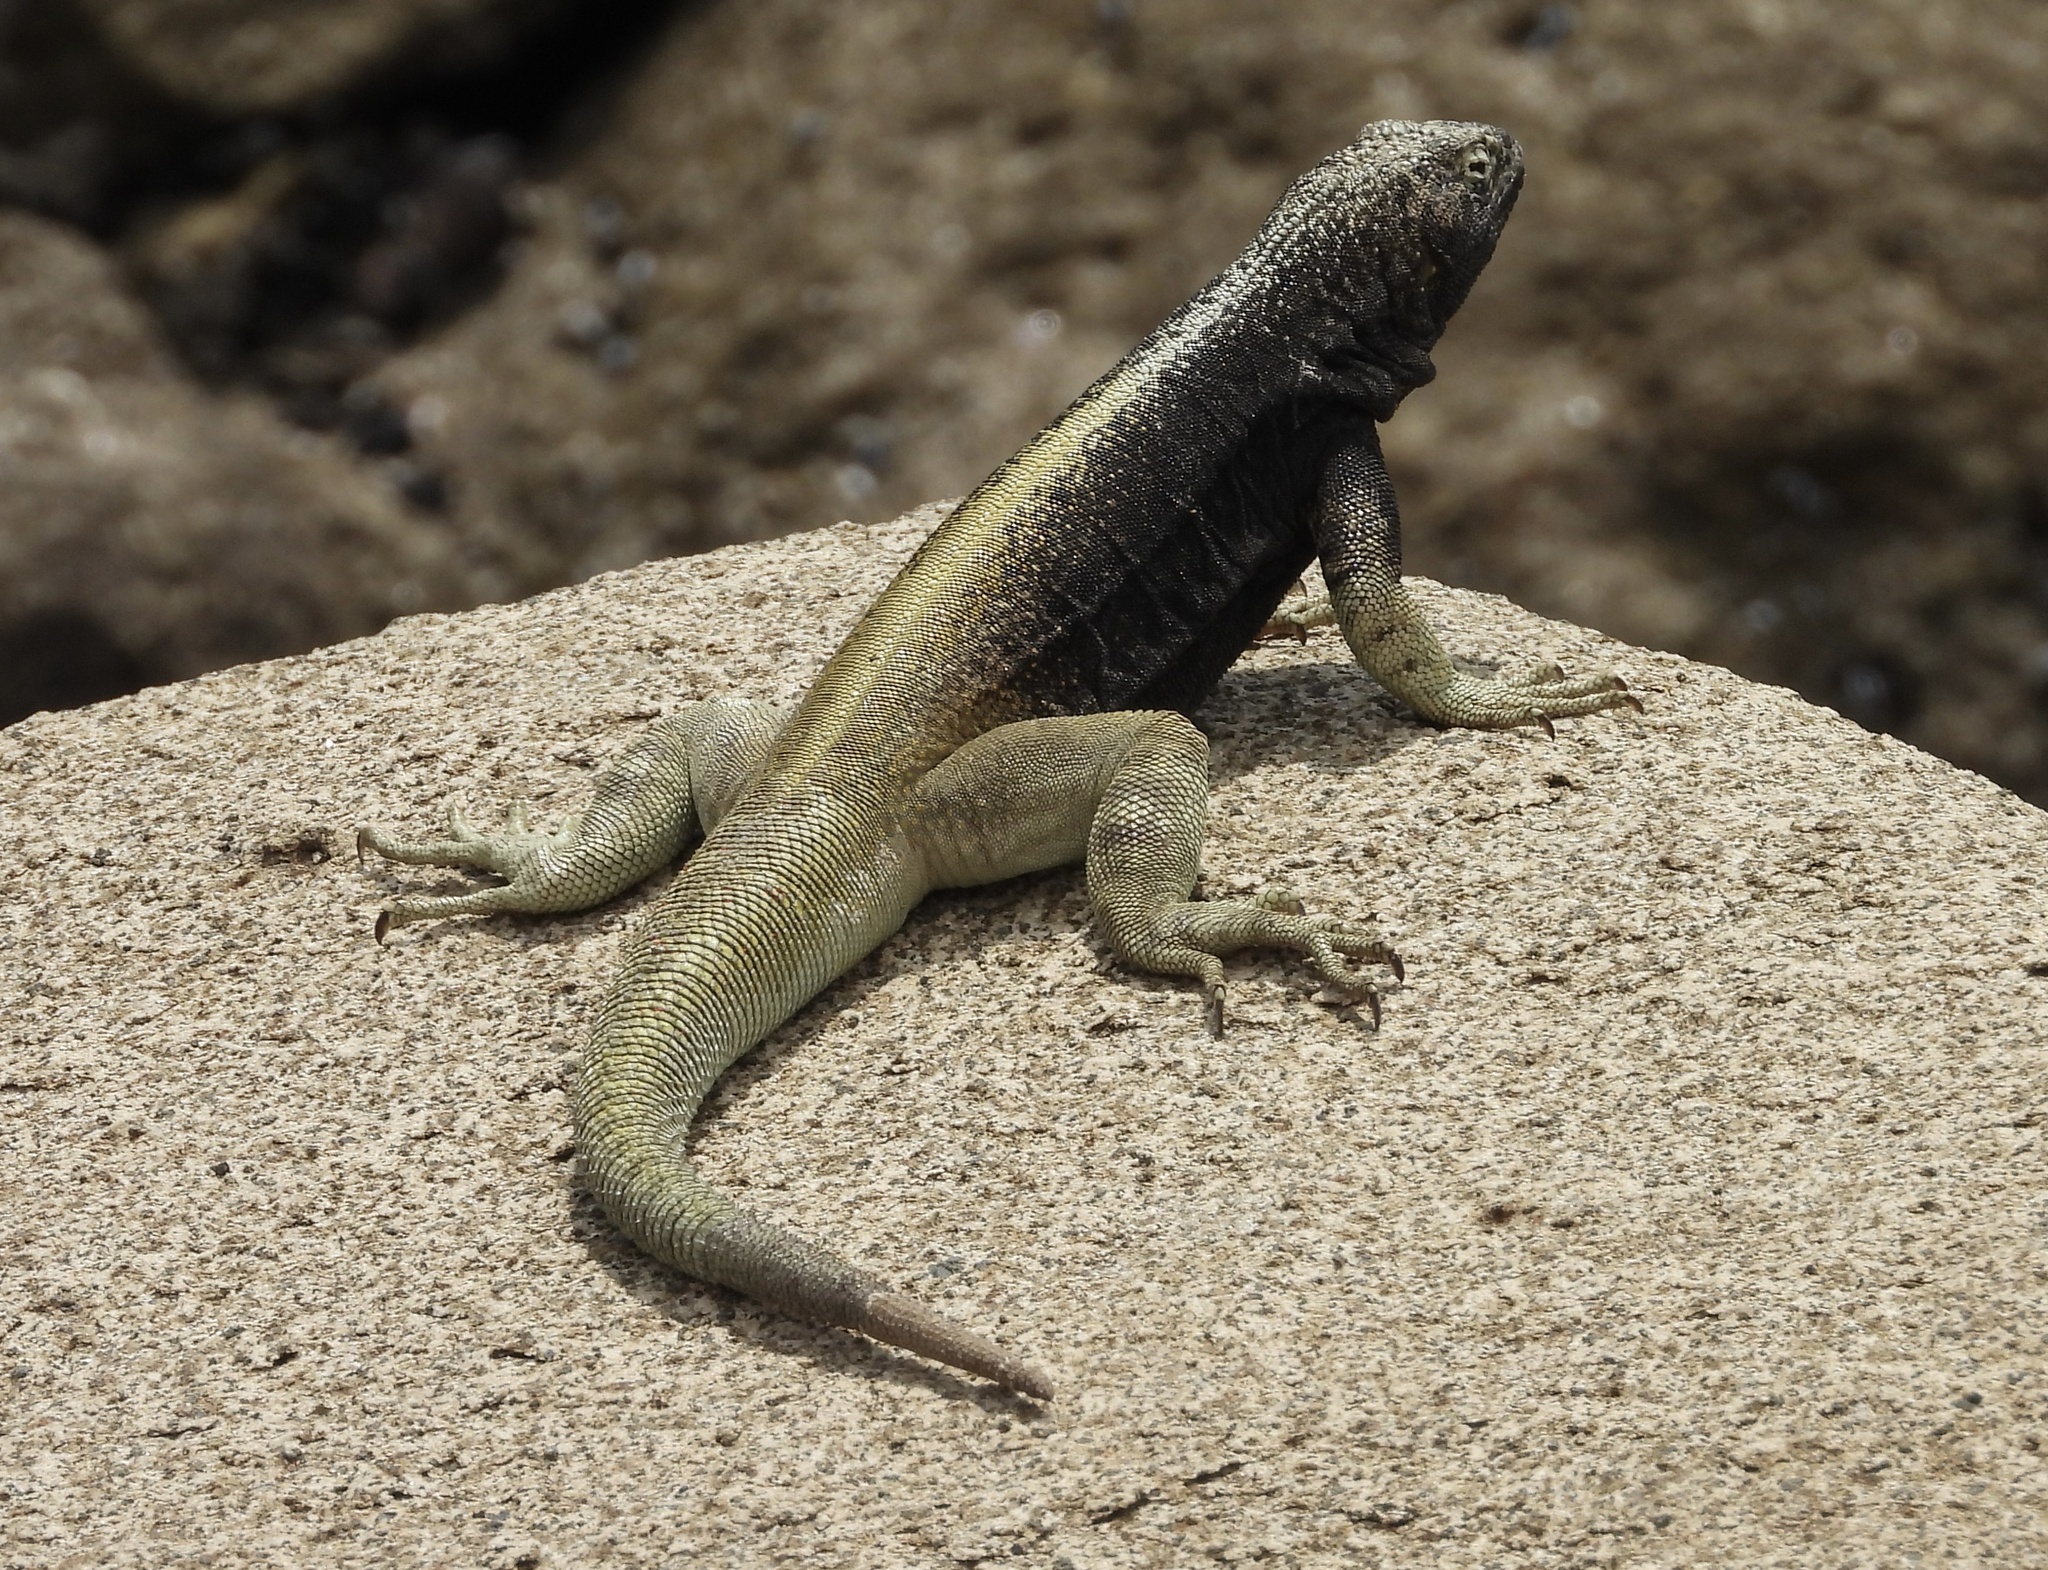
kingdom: Animalia
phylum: Chordata
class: Squamata
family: Tropiduridae
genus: Microlophus
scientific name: Microlophus quadrivittatus
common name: Four-banded pacific iguana
